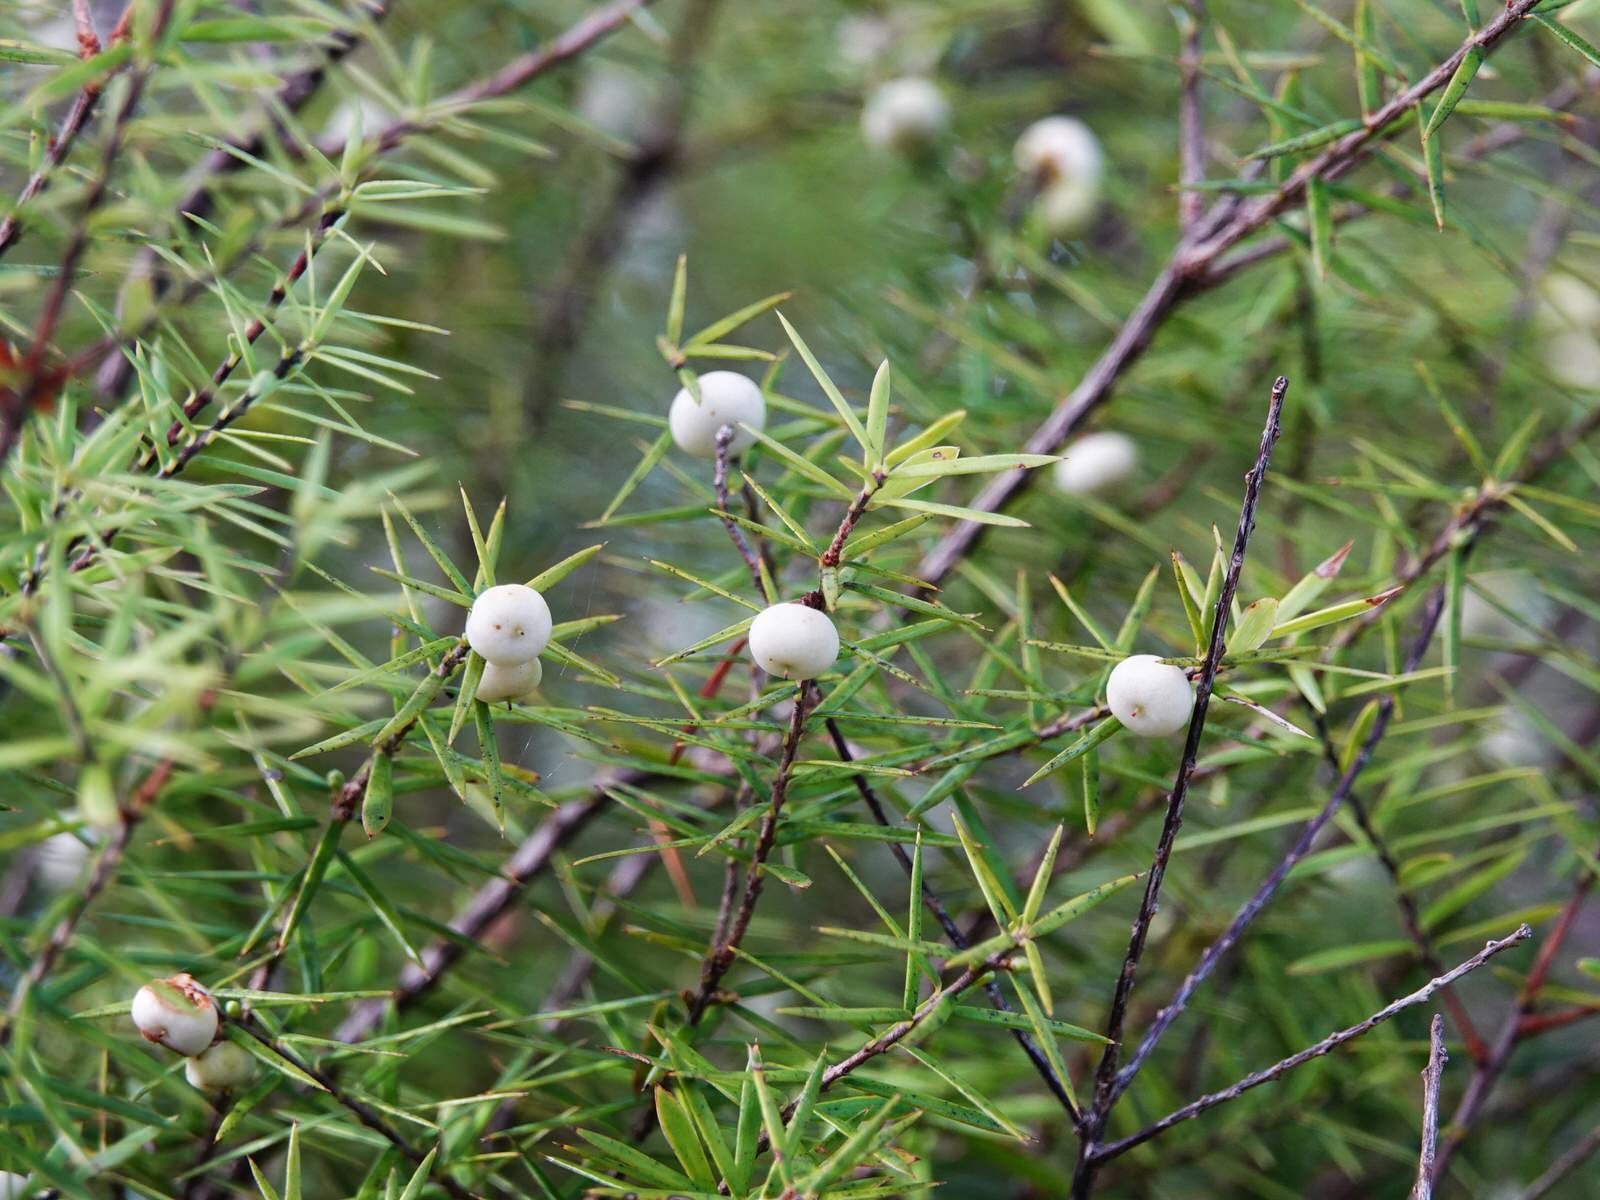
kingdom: Plantae
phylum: Tracheophyta
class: Magnoliopsida
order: Ericales
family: Ericaceae
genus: Leptecophylla
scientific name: Leptecophylla juniperina
